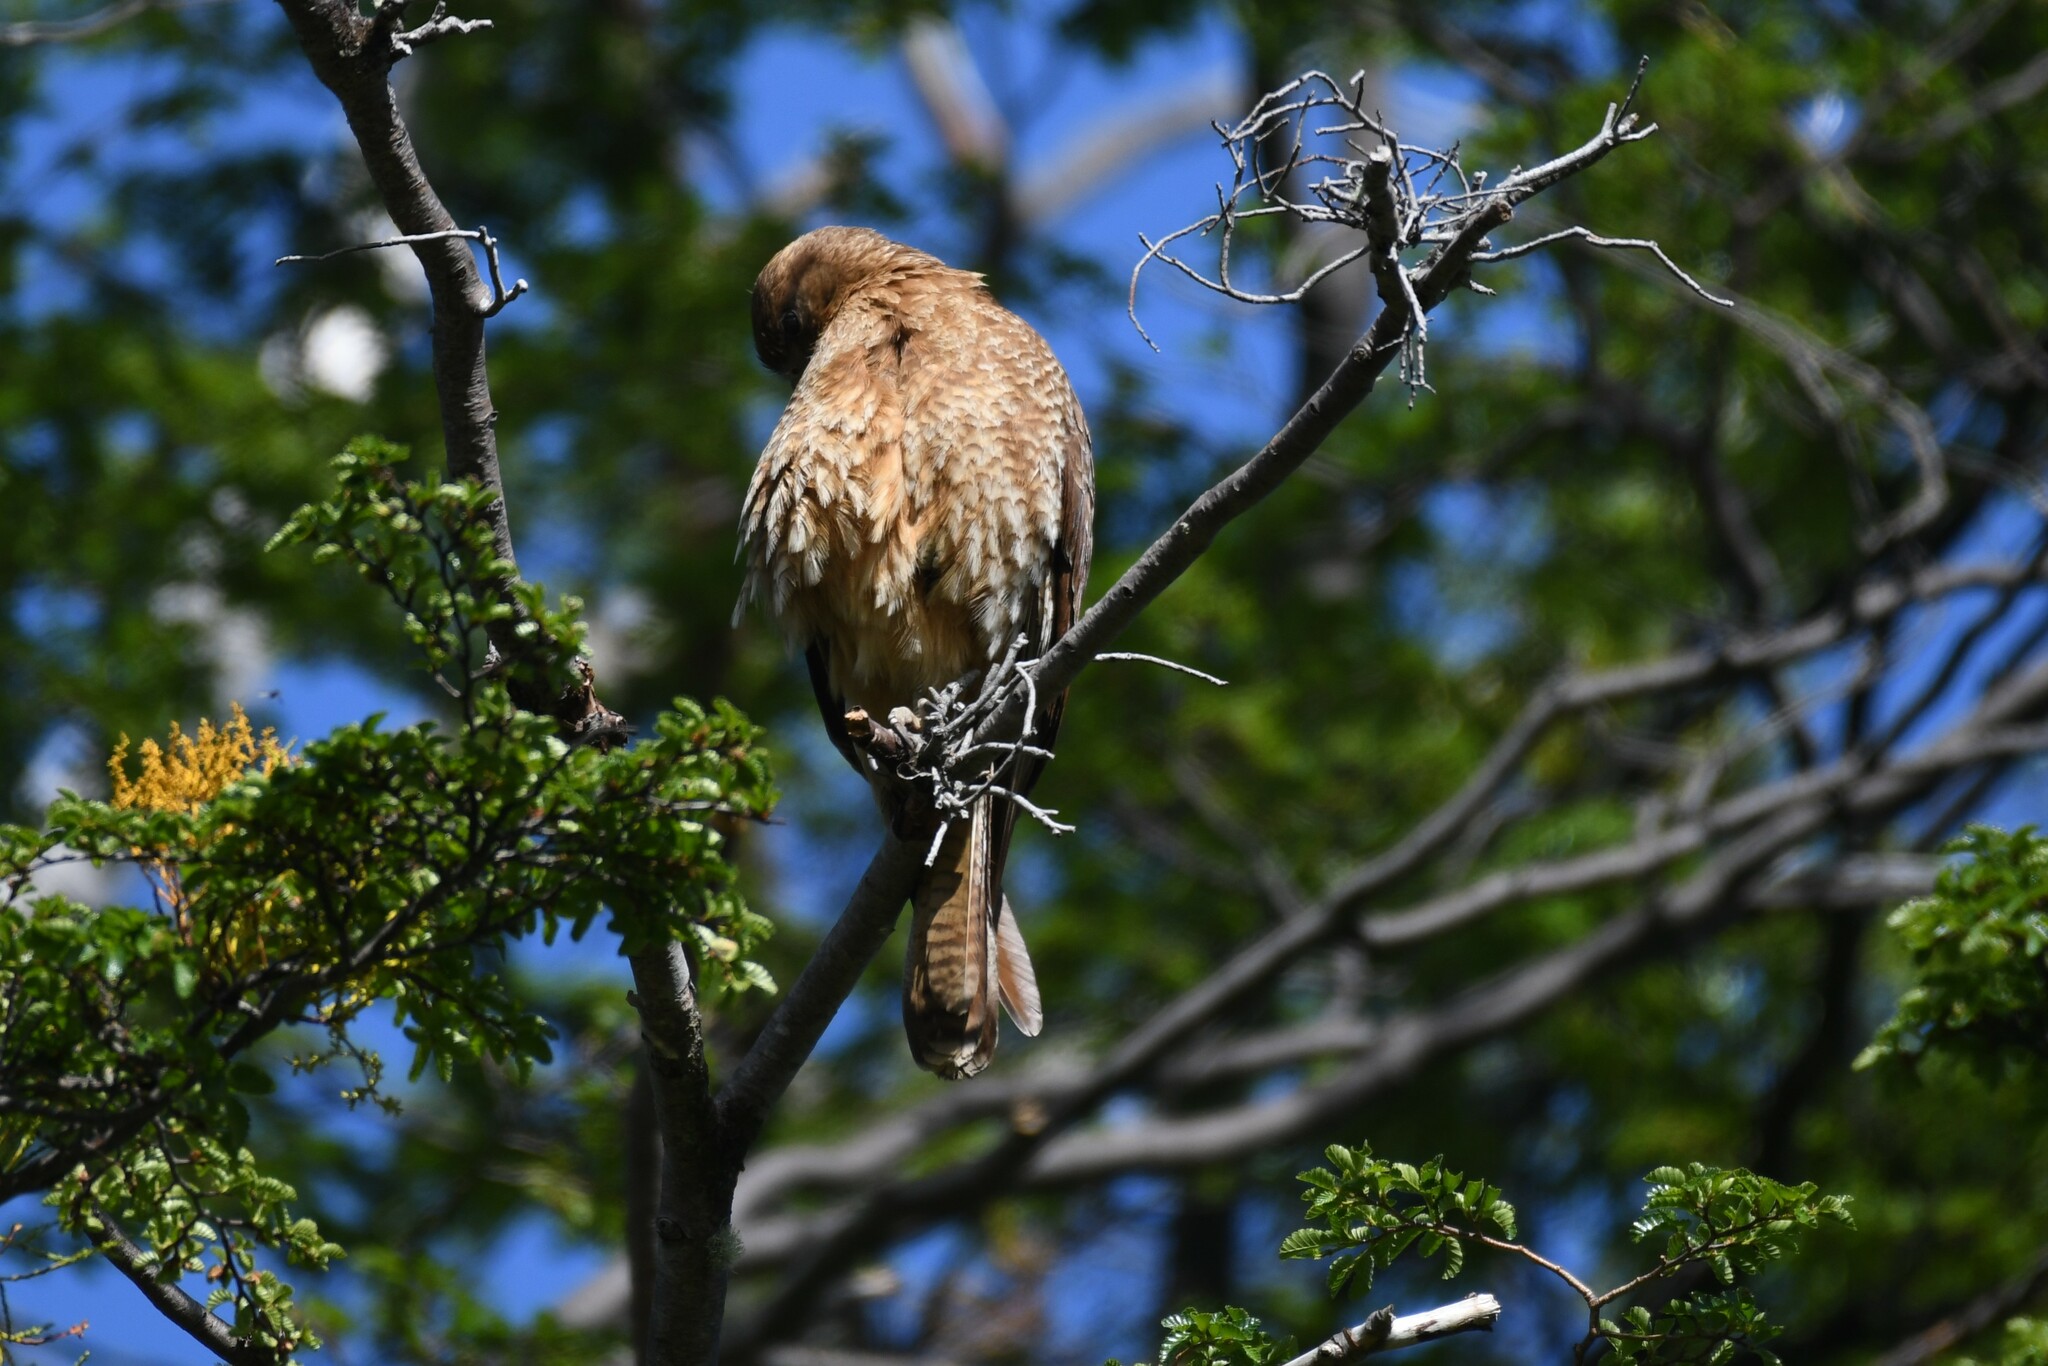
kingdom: Animalia
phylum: Chordata
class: Aves
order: Falconiformes
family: Falconidae
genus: Daptrius
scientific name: Daptrius
